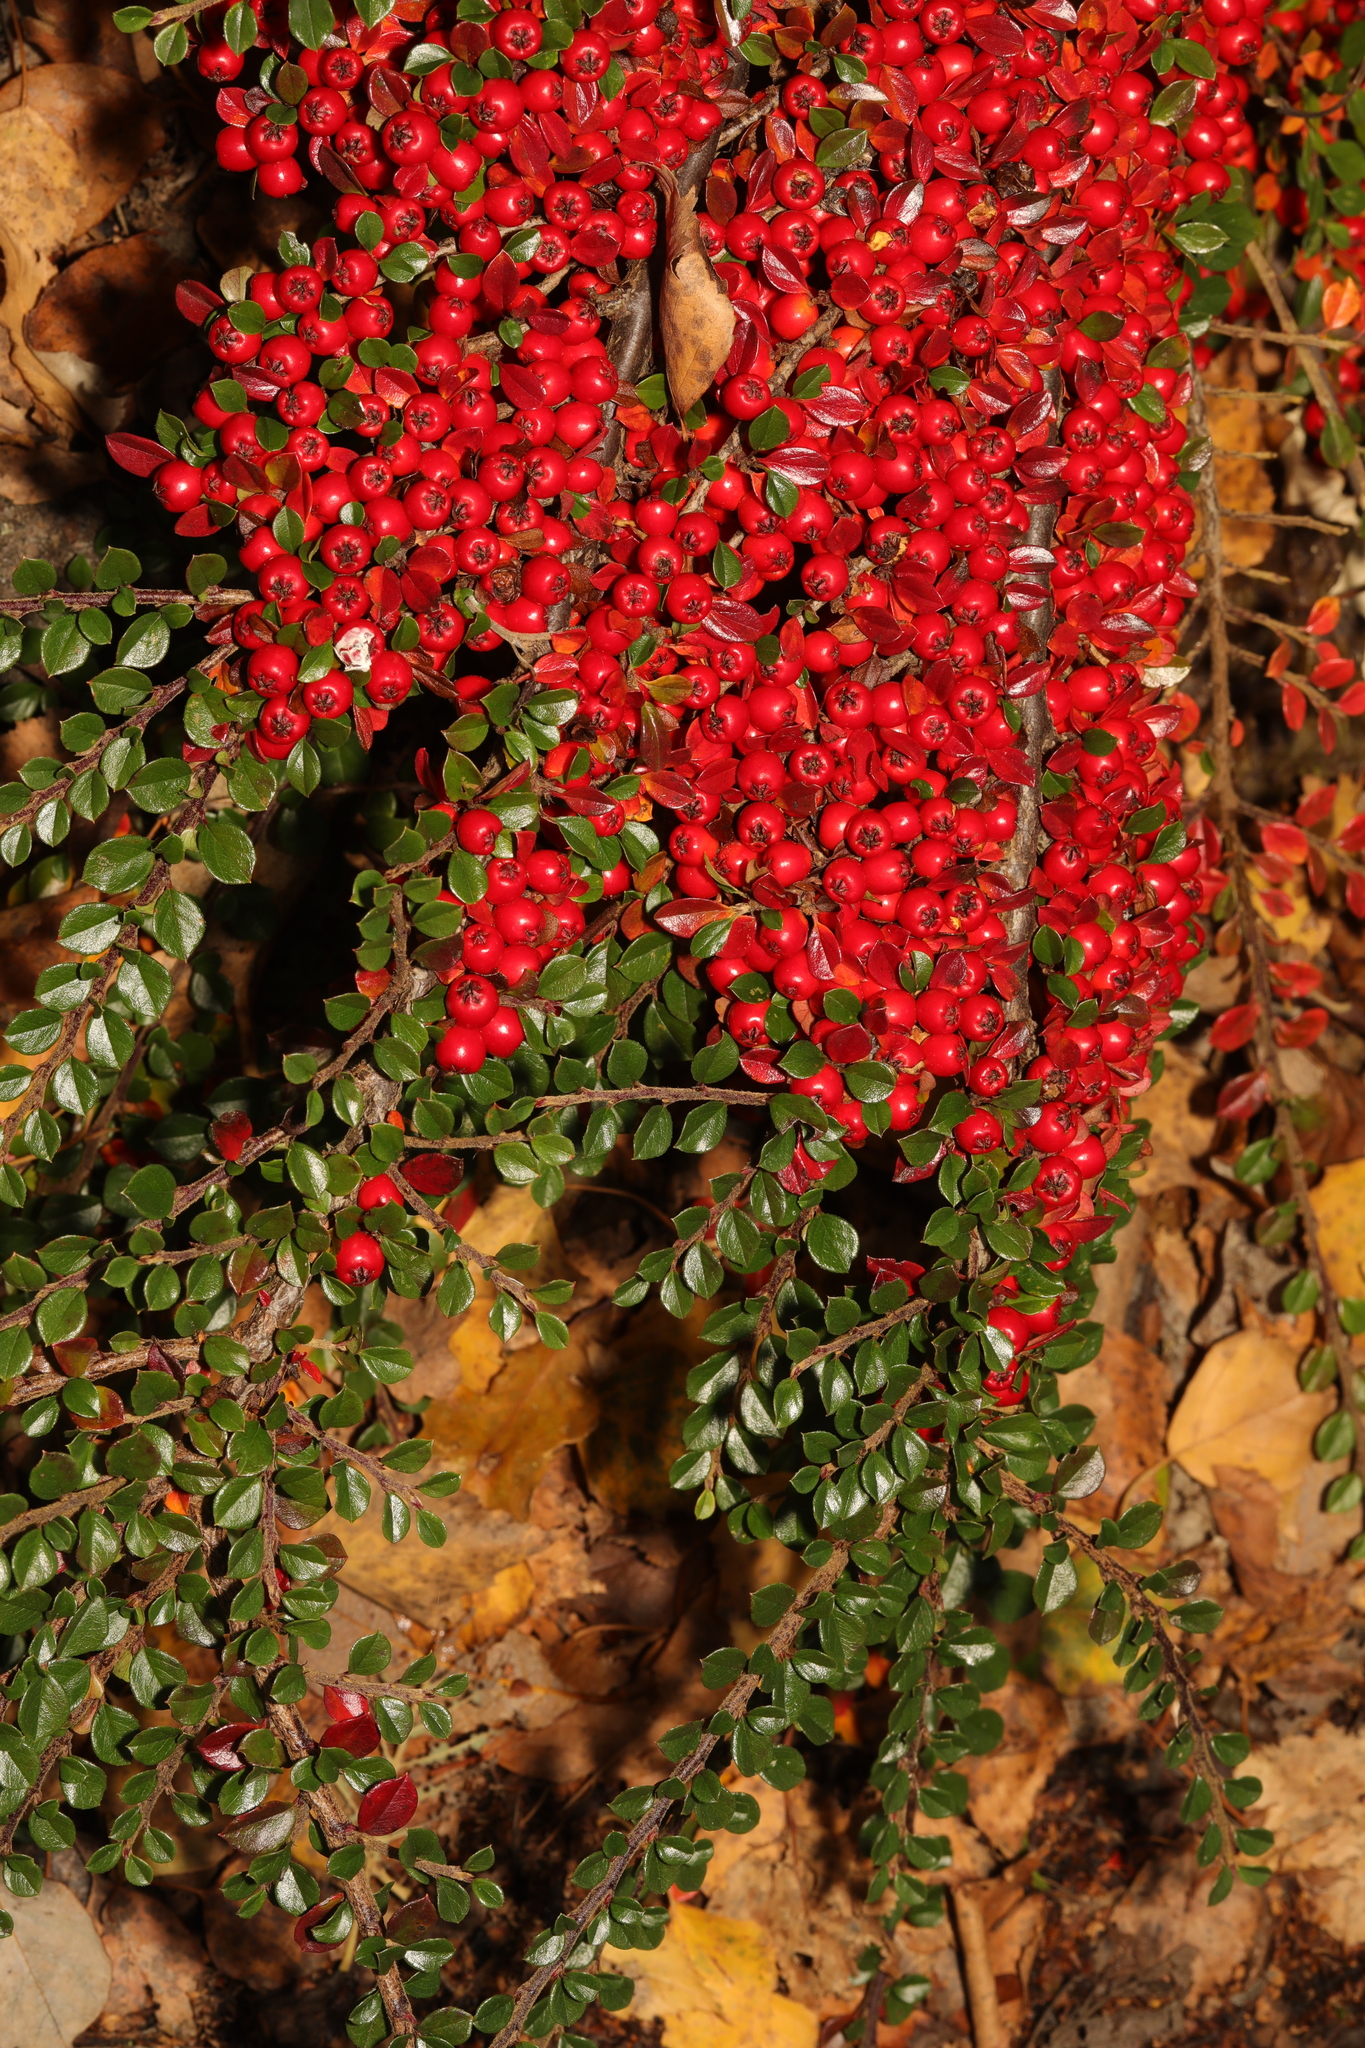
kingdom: Plantae
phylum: Tracheophyta
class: Magnoliopsida
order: Rosales
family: Rosaceae
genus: Cotoneaster
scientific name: Cotoneaster horizontalis
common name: Wall cotoneaster
